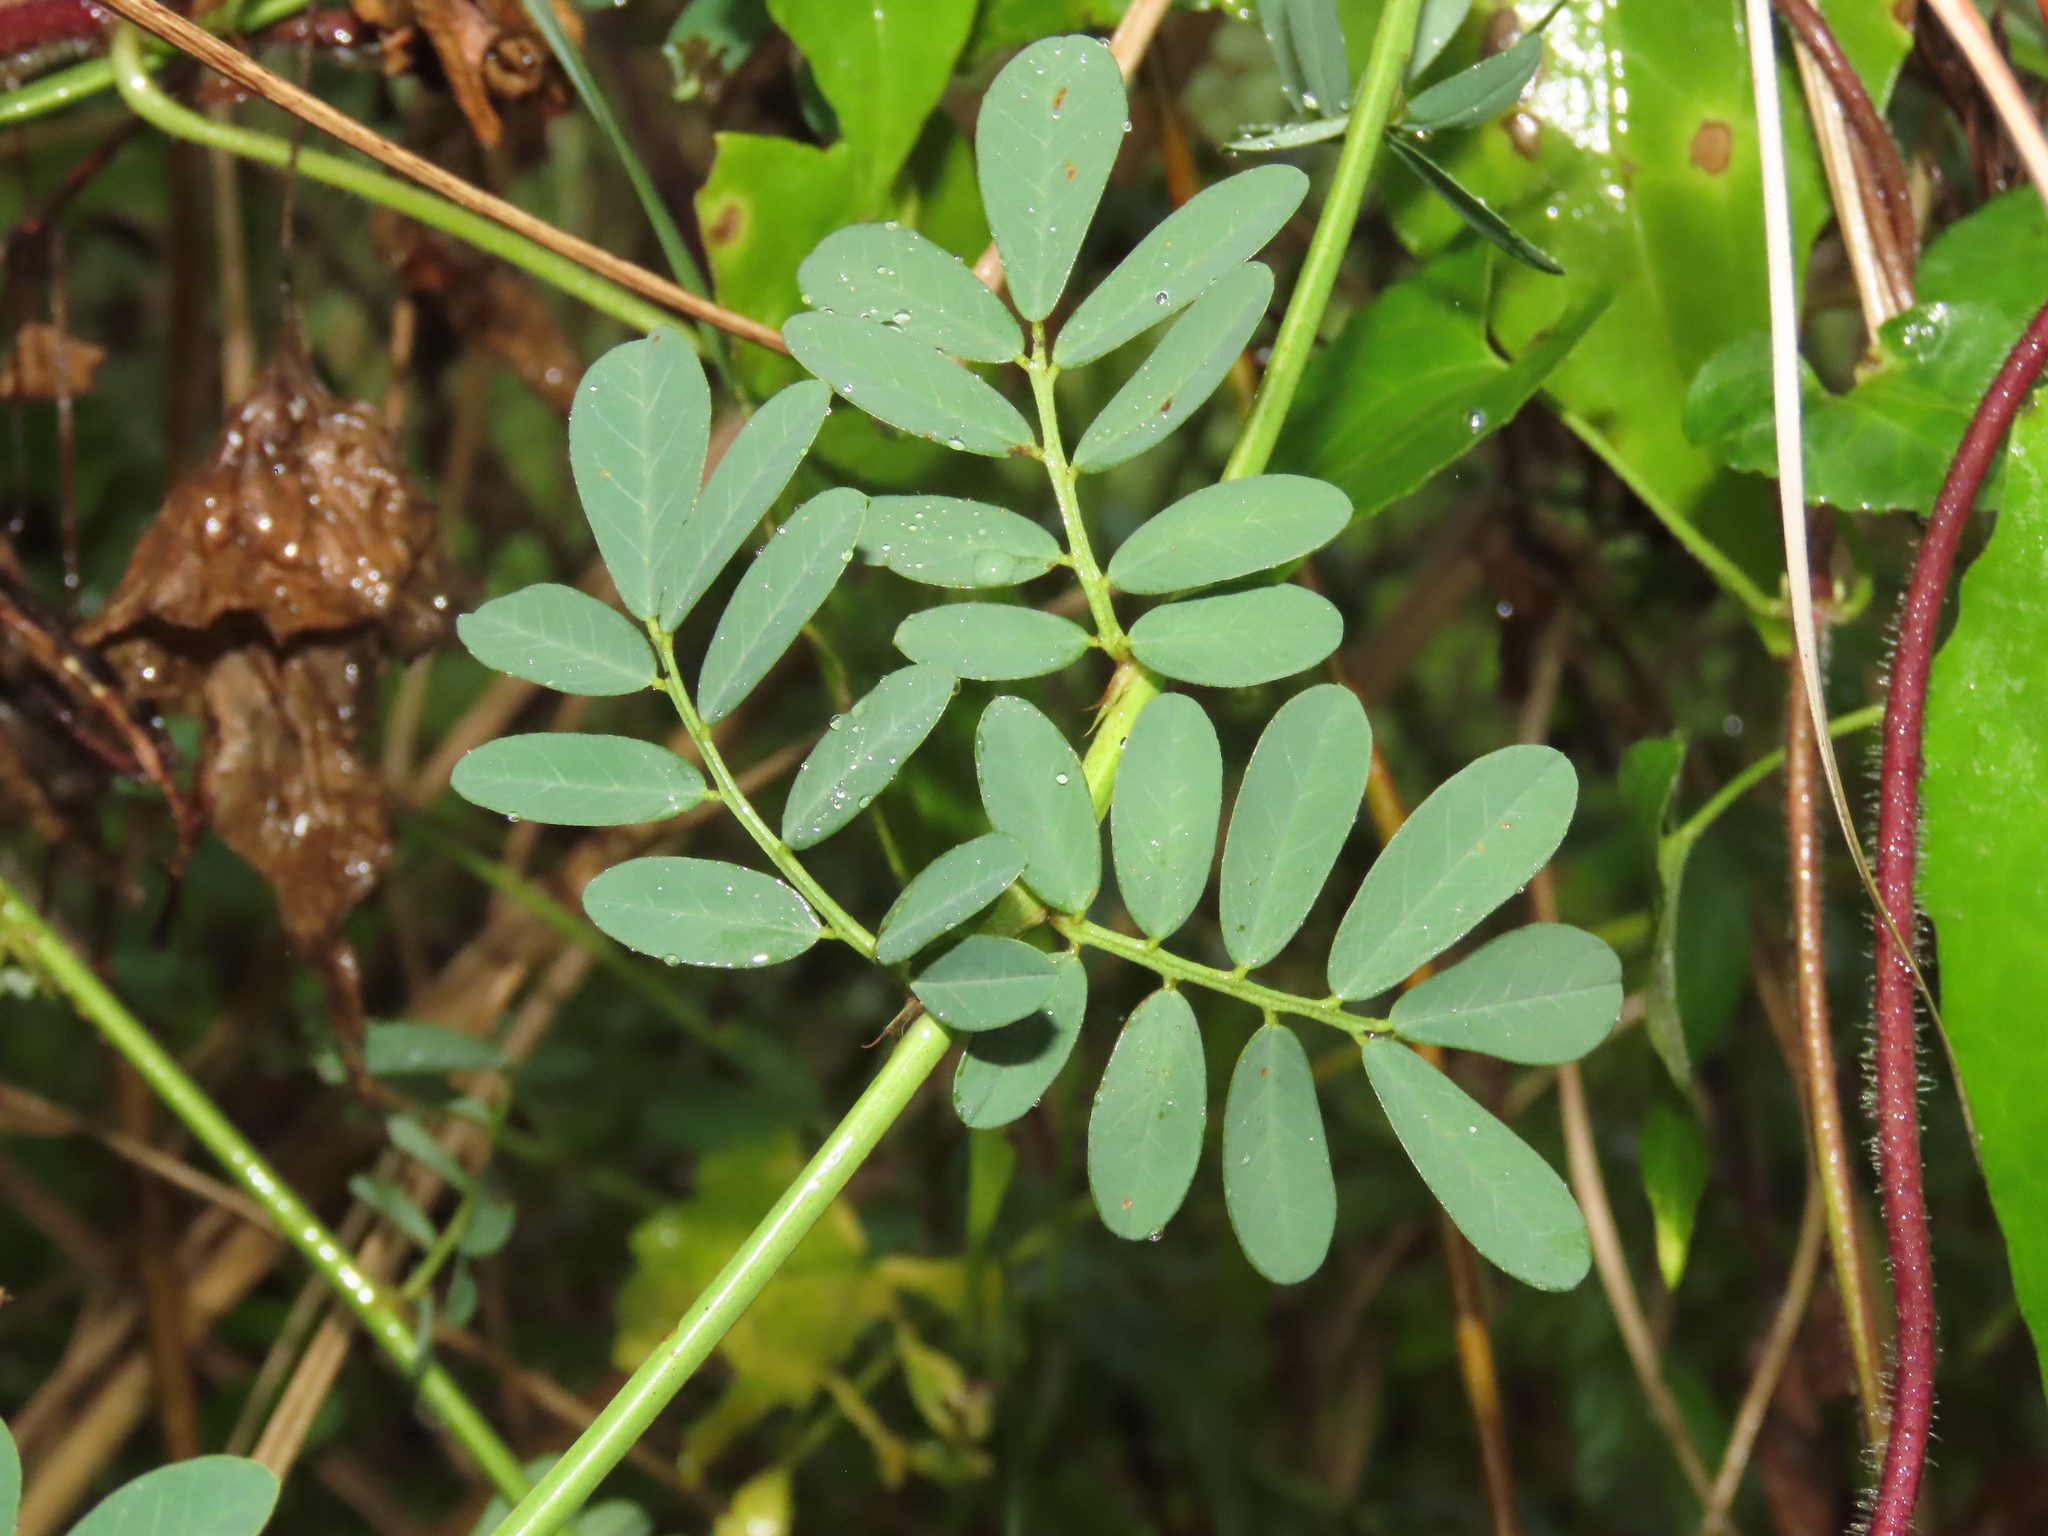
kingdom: Plantae
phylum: Tracheophyta
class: Magnoliopsida
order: Fabales
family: Fabaceae
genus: Indigofera
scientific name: Indigofera spicata
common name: Creeping indigo
